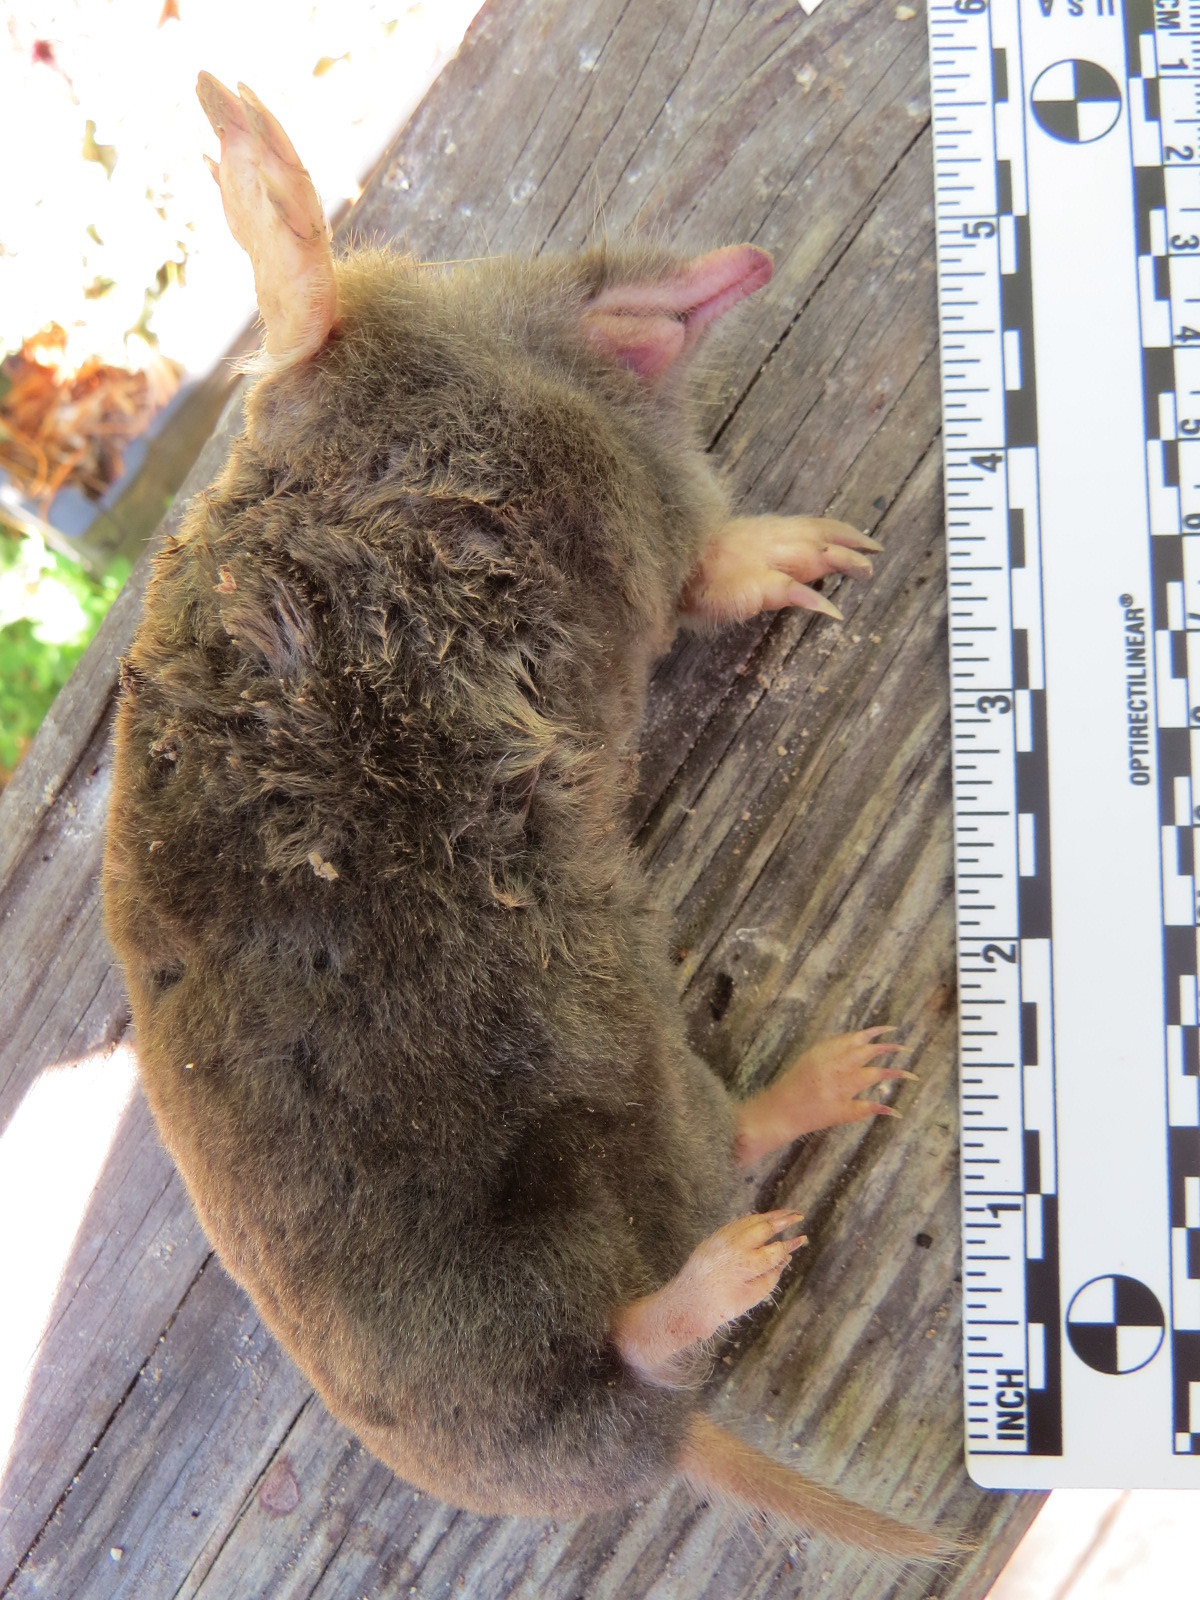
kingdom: Animalia
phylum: Chordata
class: Mammalia
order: Soricomorpha
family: Talpidae
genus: Scapanus
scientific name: Scapanus latimanus
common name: Broad-footed mole
